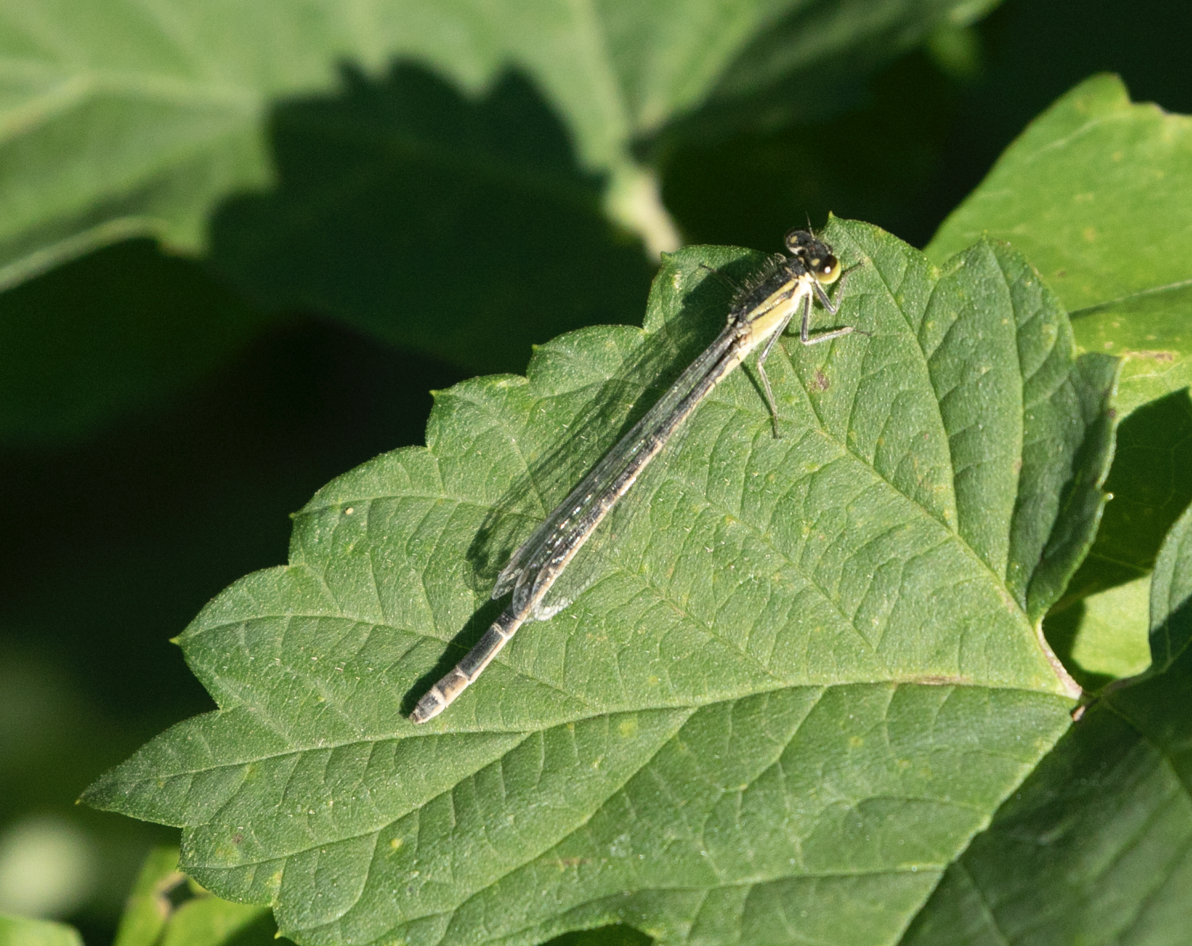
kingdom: Animalia
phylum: Arthropoda
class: Insecta
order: Odonata
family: Coenagrionidae
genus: Ischnura
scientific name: Ischnura elegans
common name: Blue-tailed damselfly
